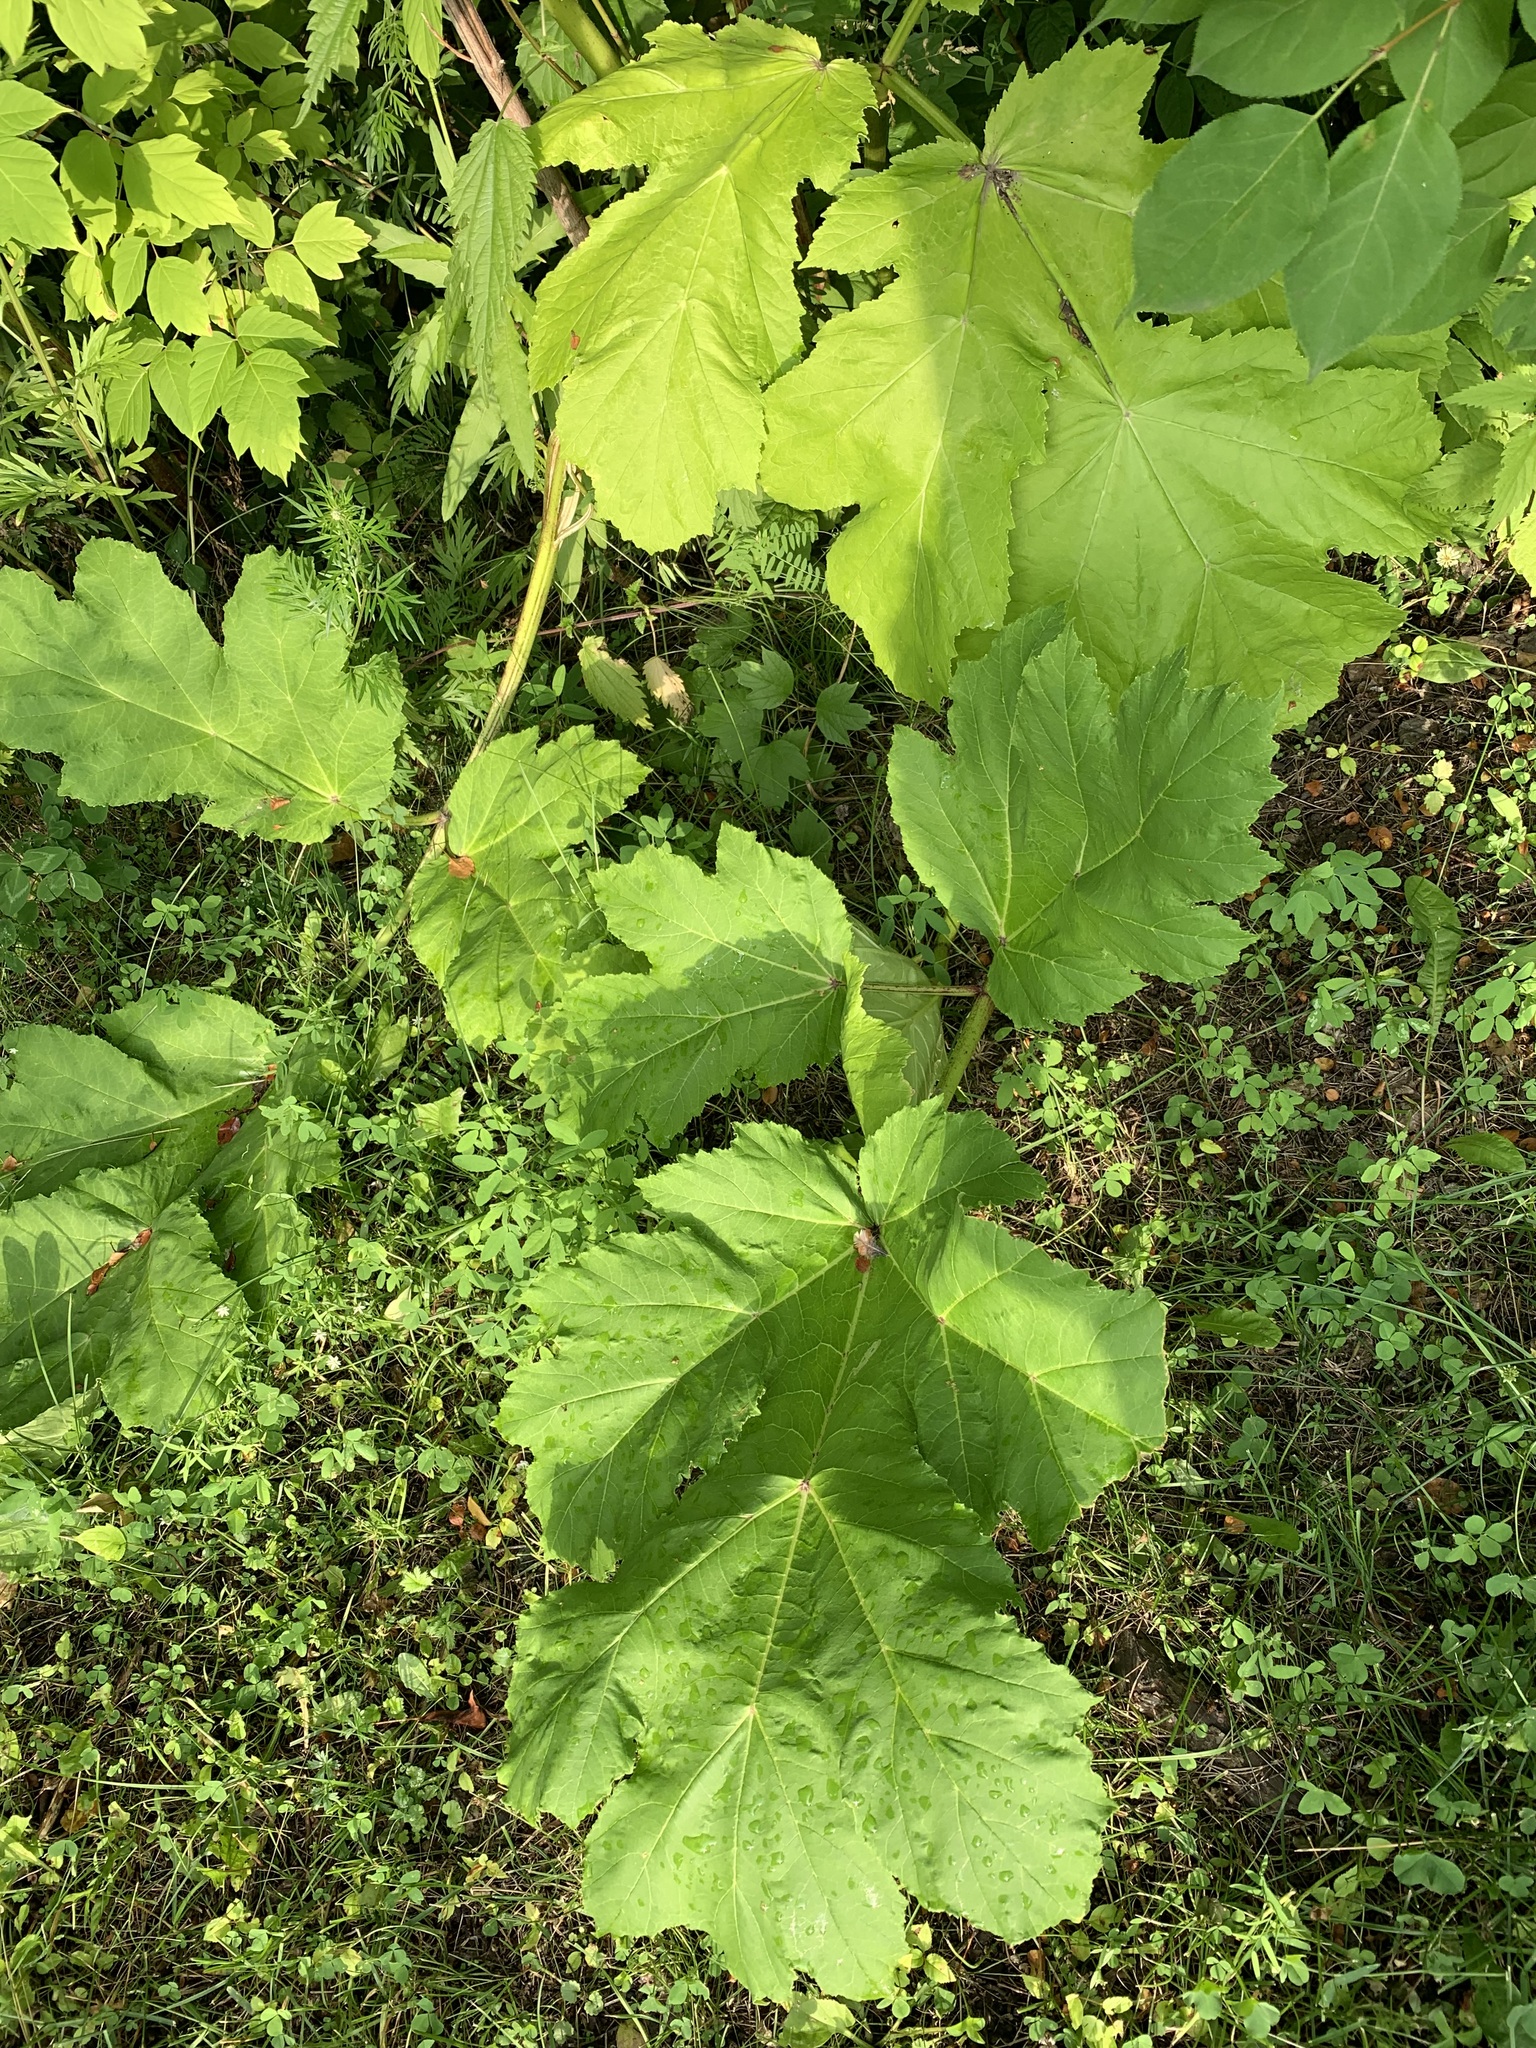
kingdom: Plantae
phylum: Tracheophyta
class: Magnoliopsida
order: Apiales
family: Apiaceae
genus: Heracleum
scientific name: Heracleum sosnowskyi
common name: Sosnowsky's hogweed
